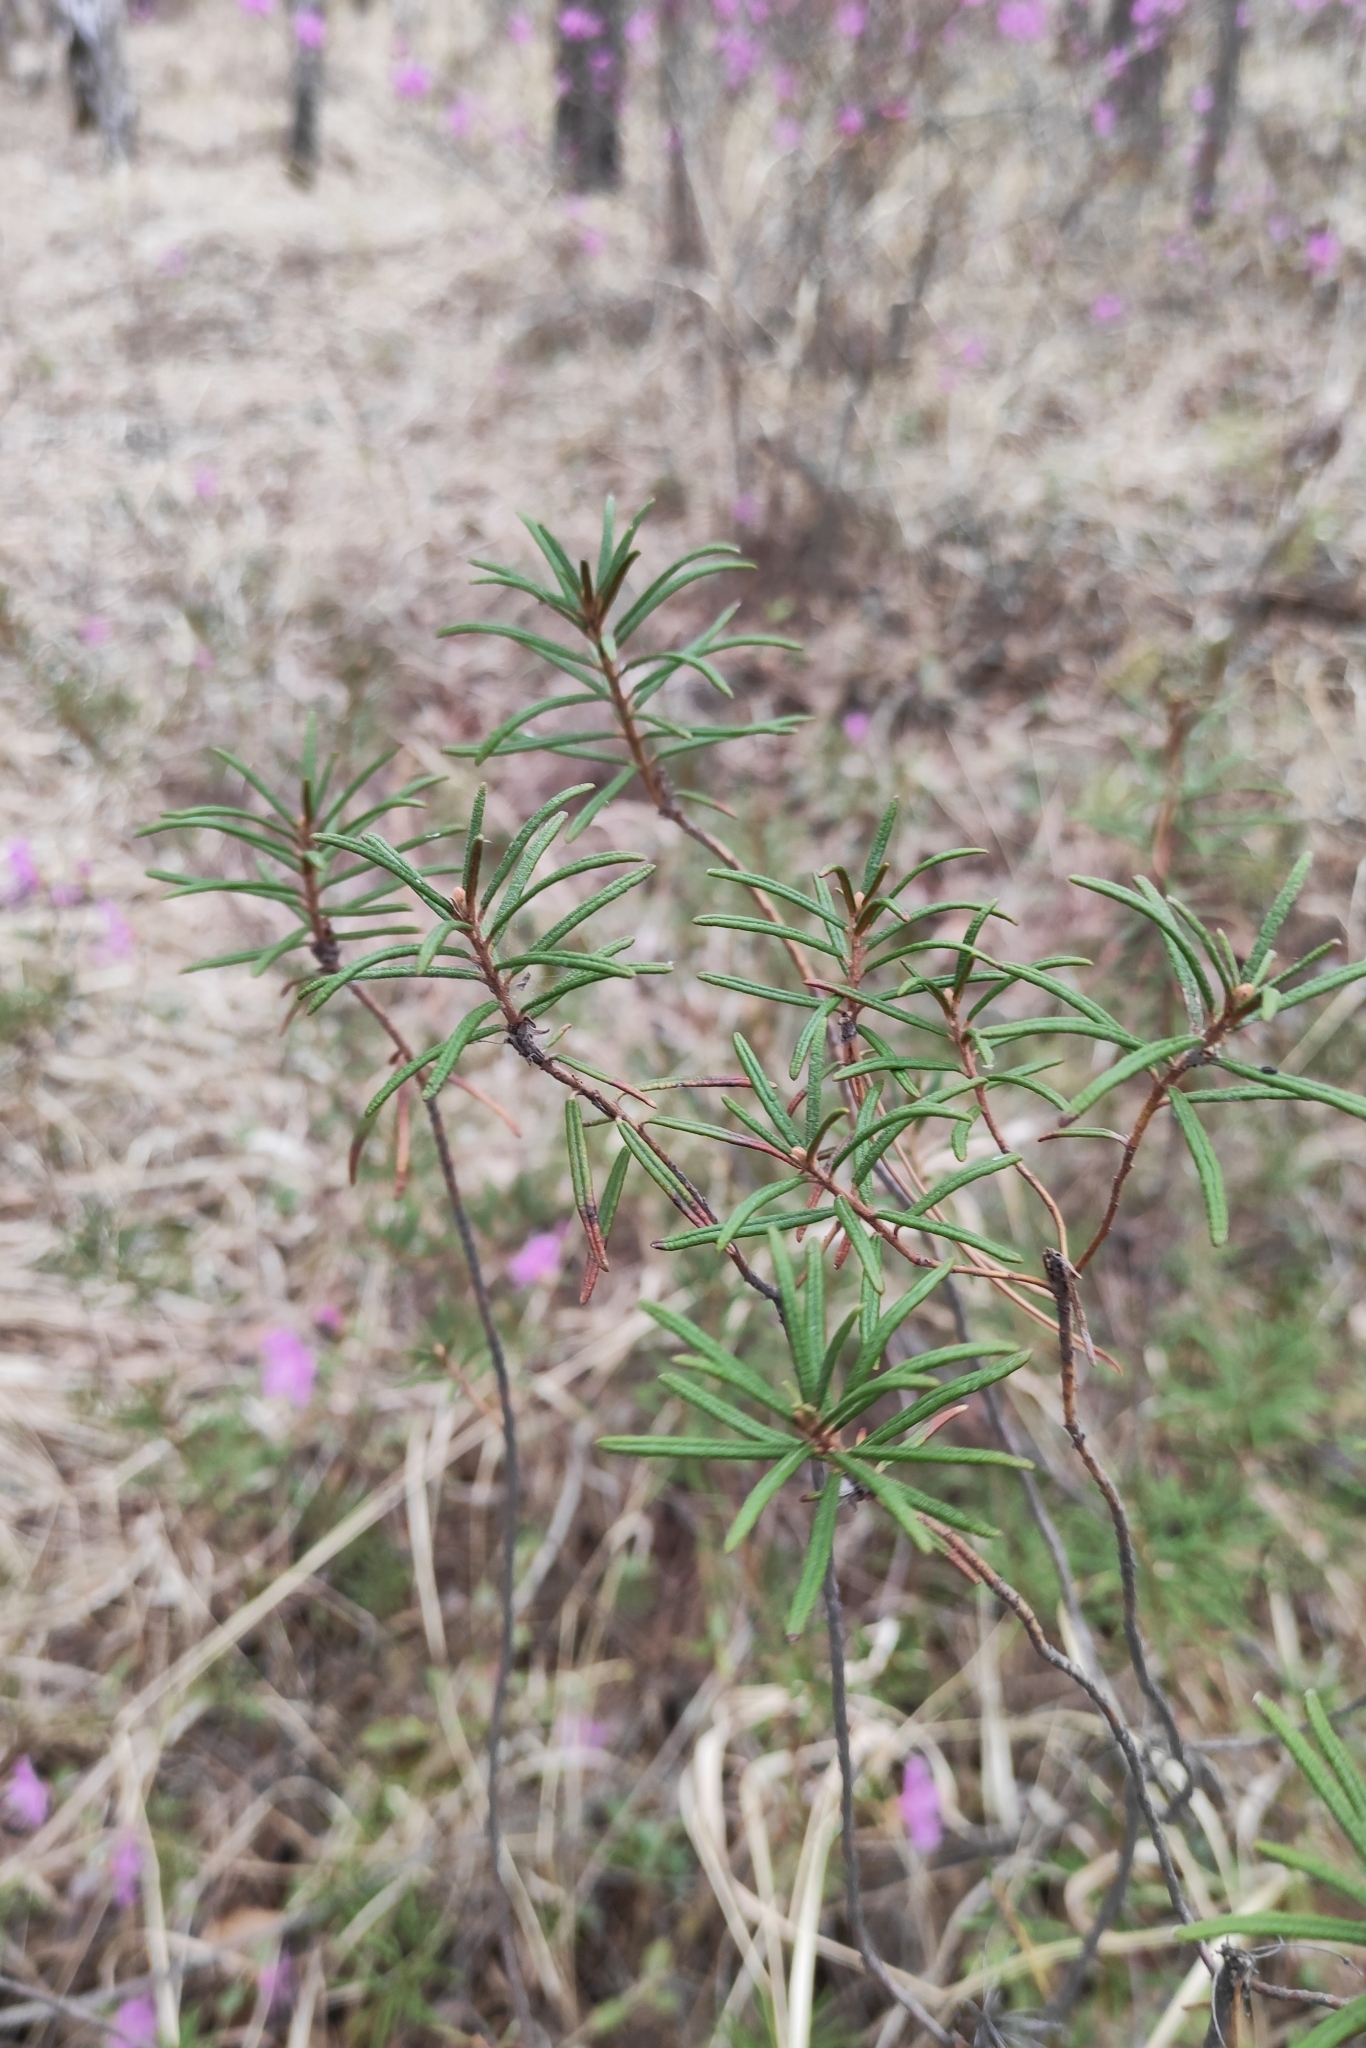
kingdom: Plantae
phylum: Tracheophyta
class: Magnoliopsida
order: Ericales
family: Ericaceae
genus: Rhododendron
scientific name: Rhododendron tomentosum
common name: Marsh labrador tea
